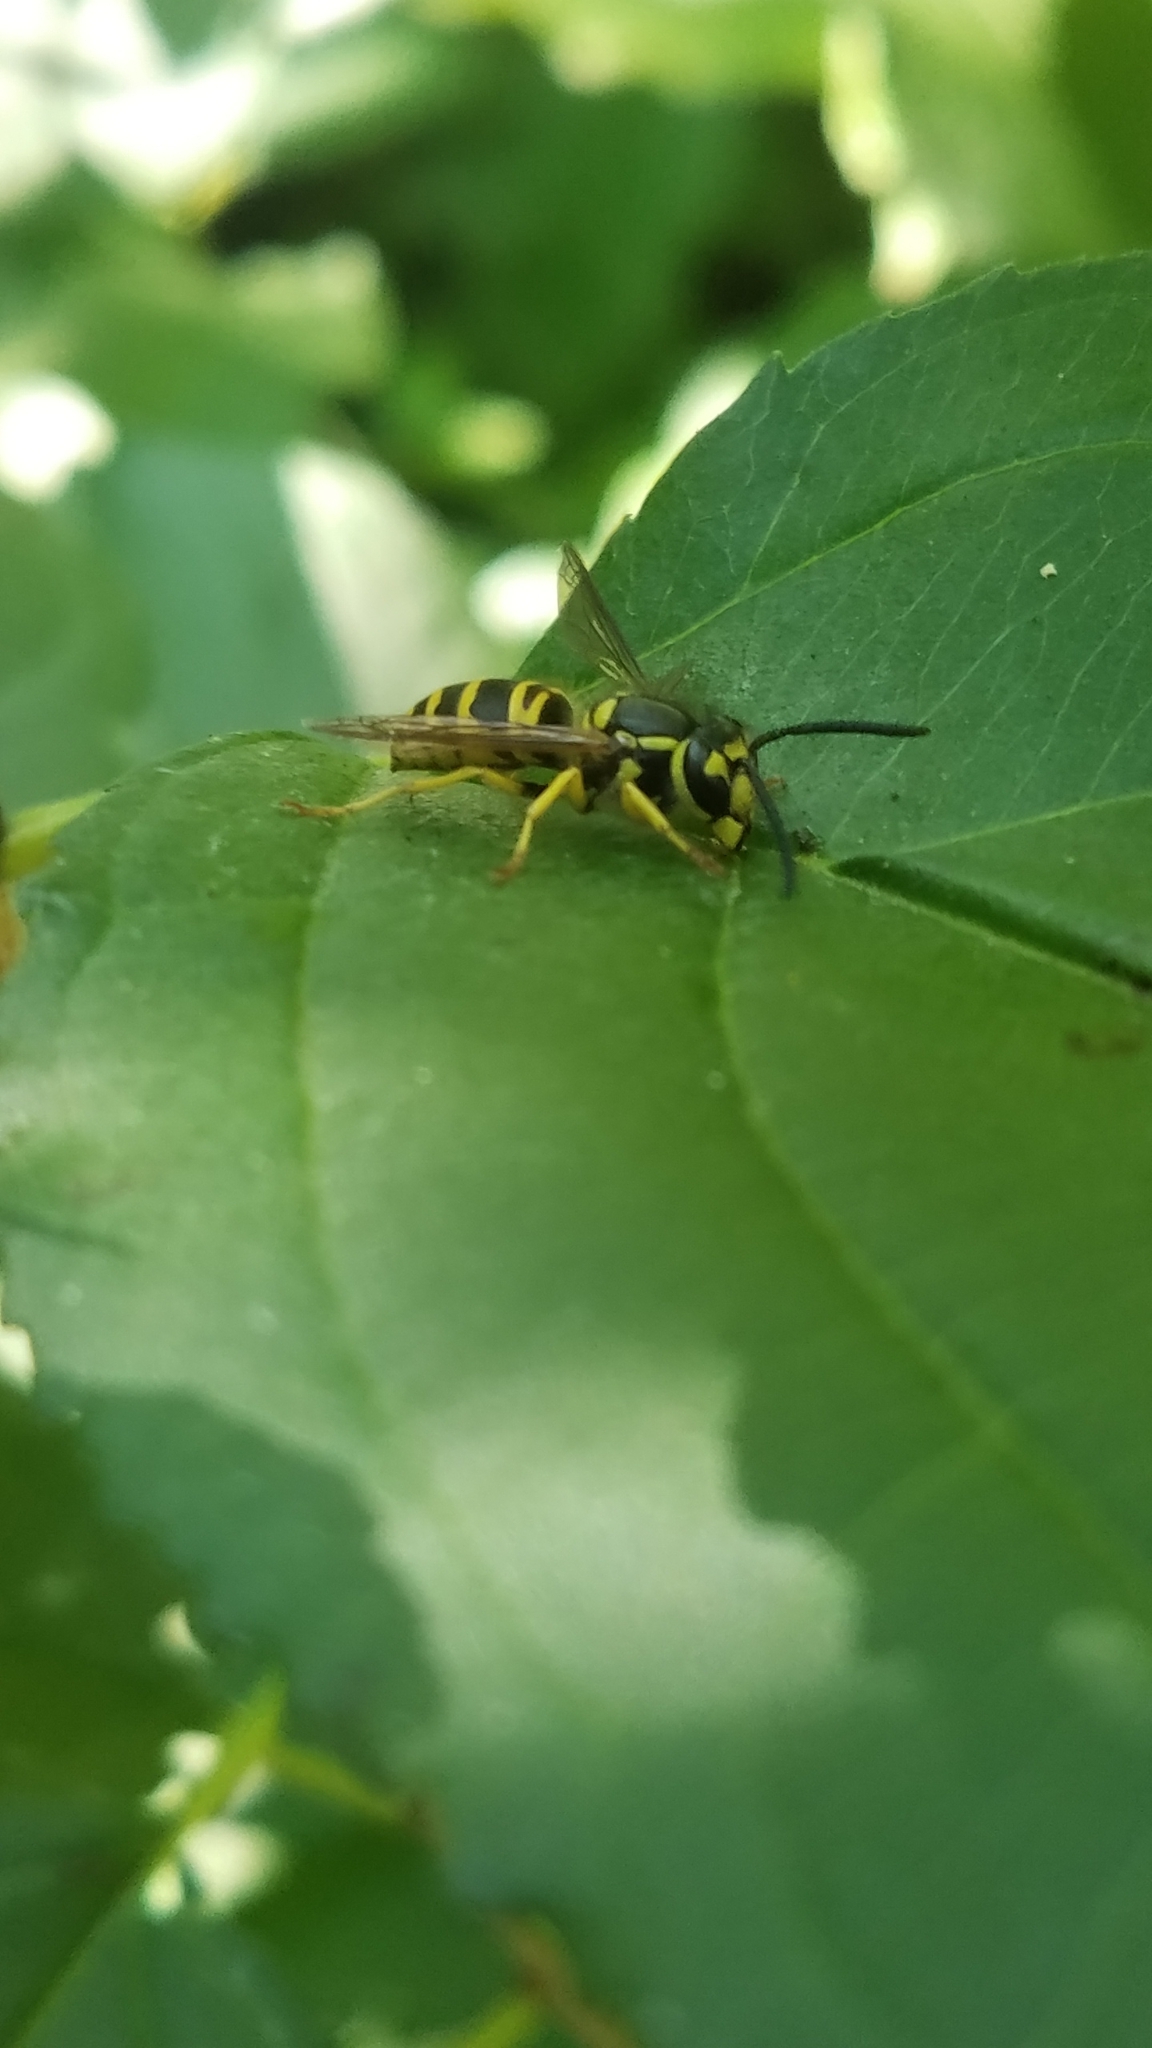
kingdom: Animalia
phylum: Arthropoda
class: Insecta
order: Hymenoptera
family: Vespidae
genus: Vespula
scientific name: Vespula maculifrons
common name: Eastern yellowjacket
